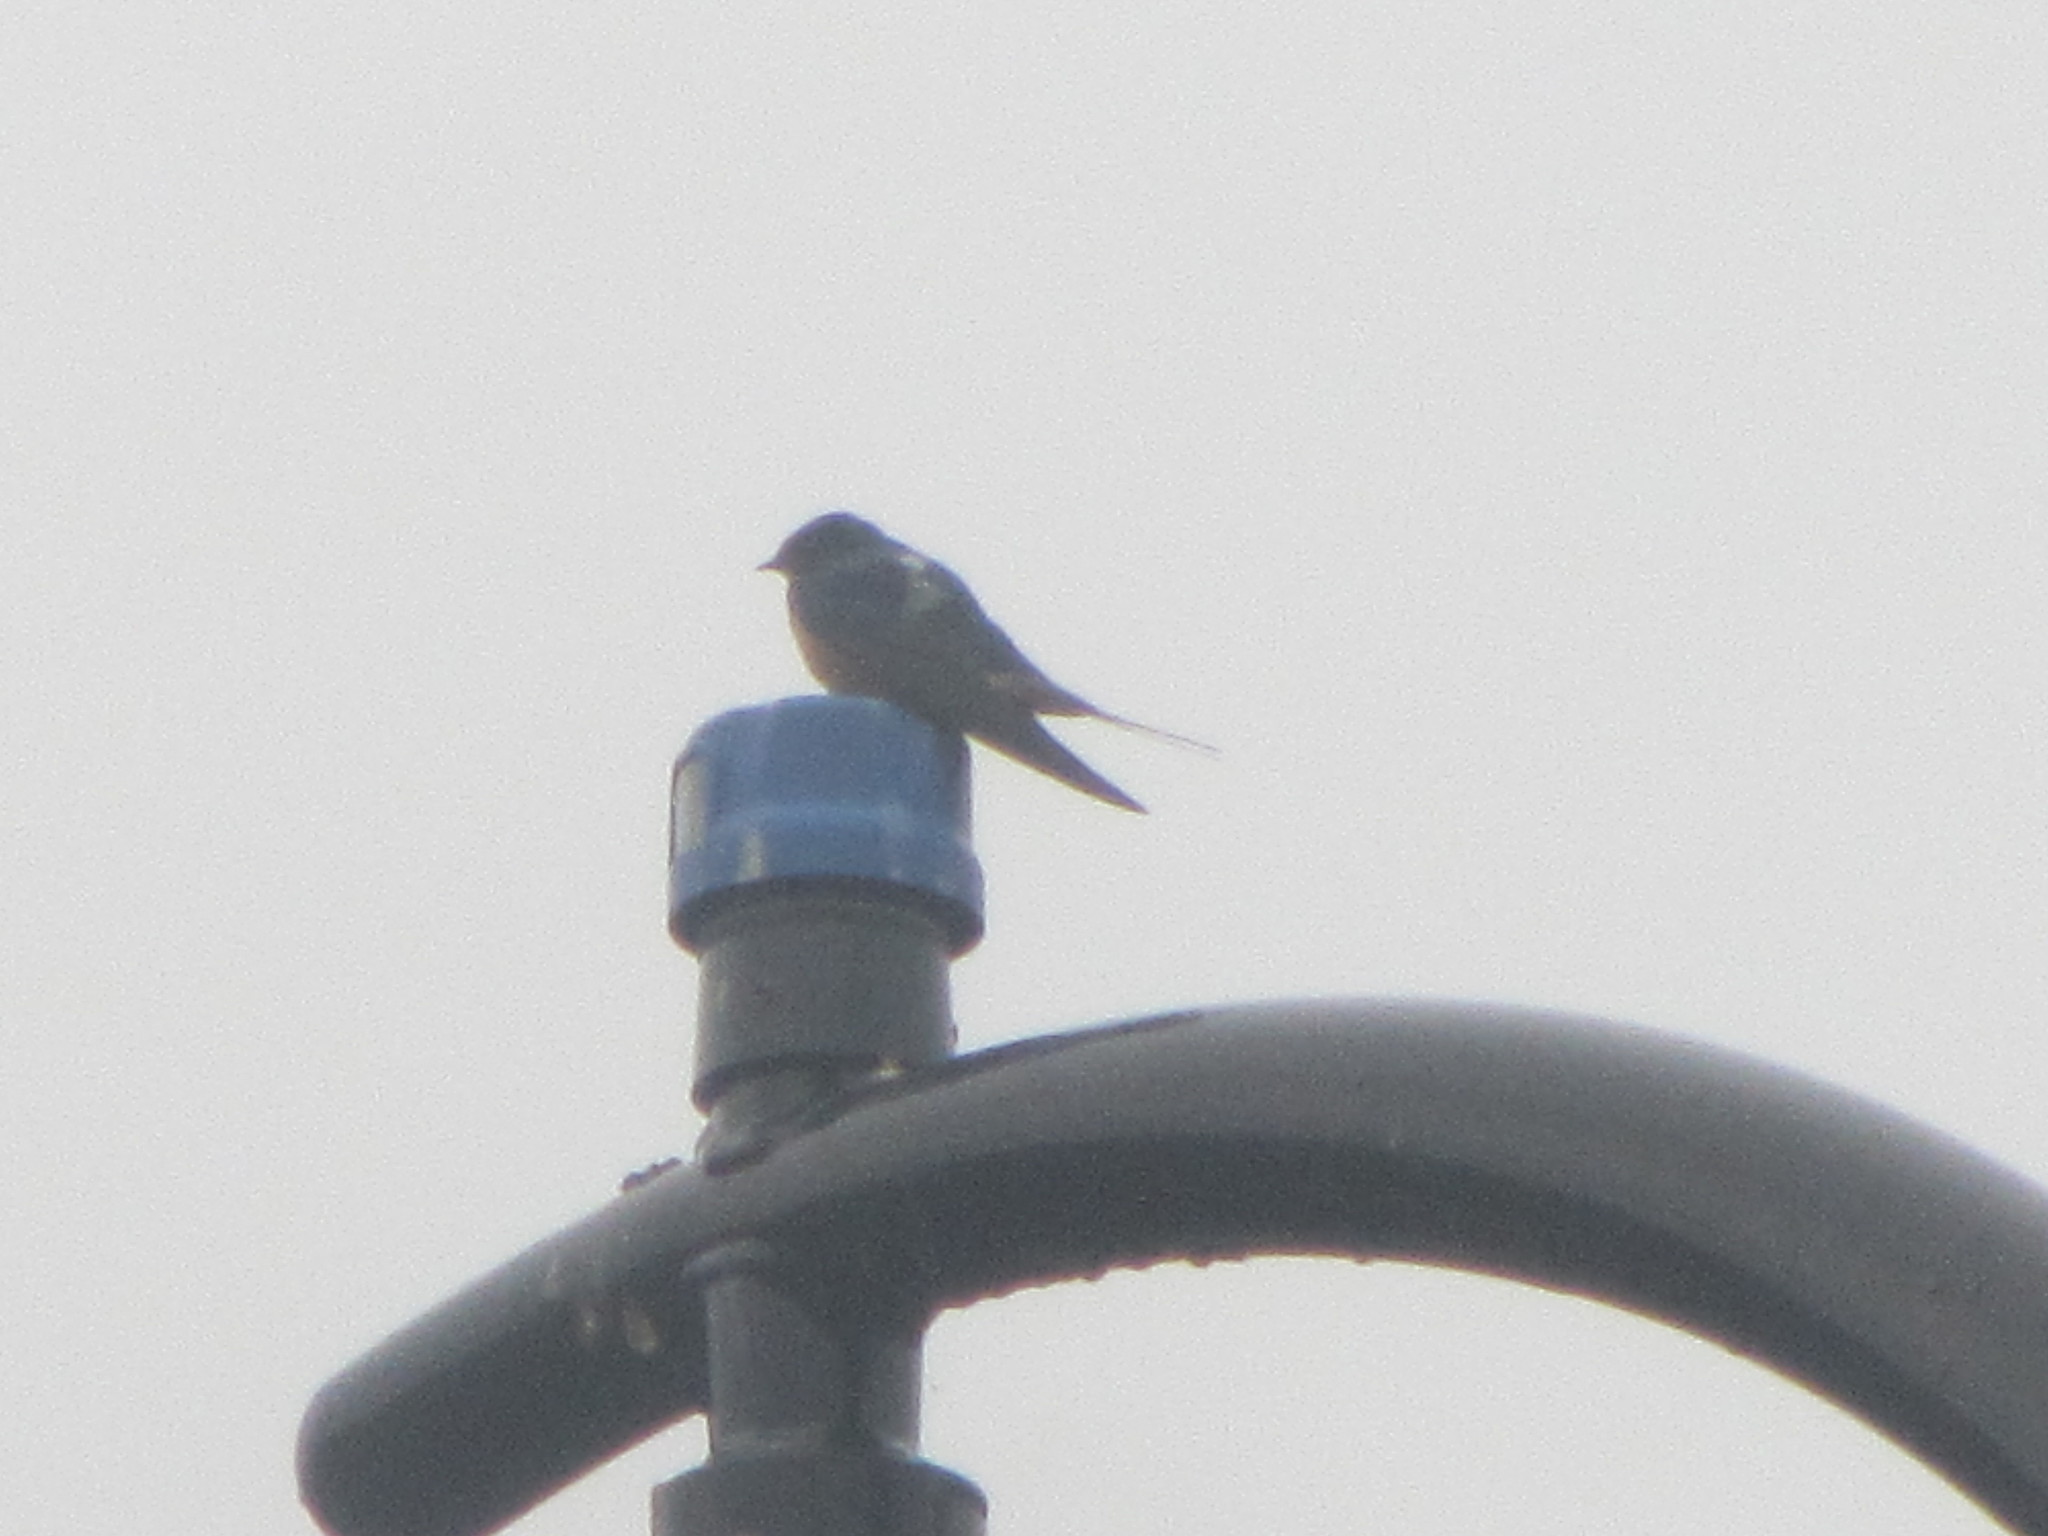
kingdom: Animalia
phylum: Chordata
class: Aves
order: Passeriformes
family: Hirundinidae
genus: Hirundo
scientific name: Hirundo rustica
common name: Barn swallow
